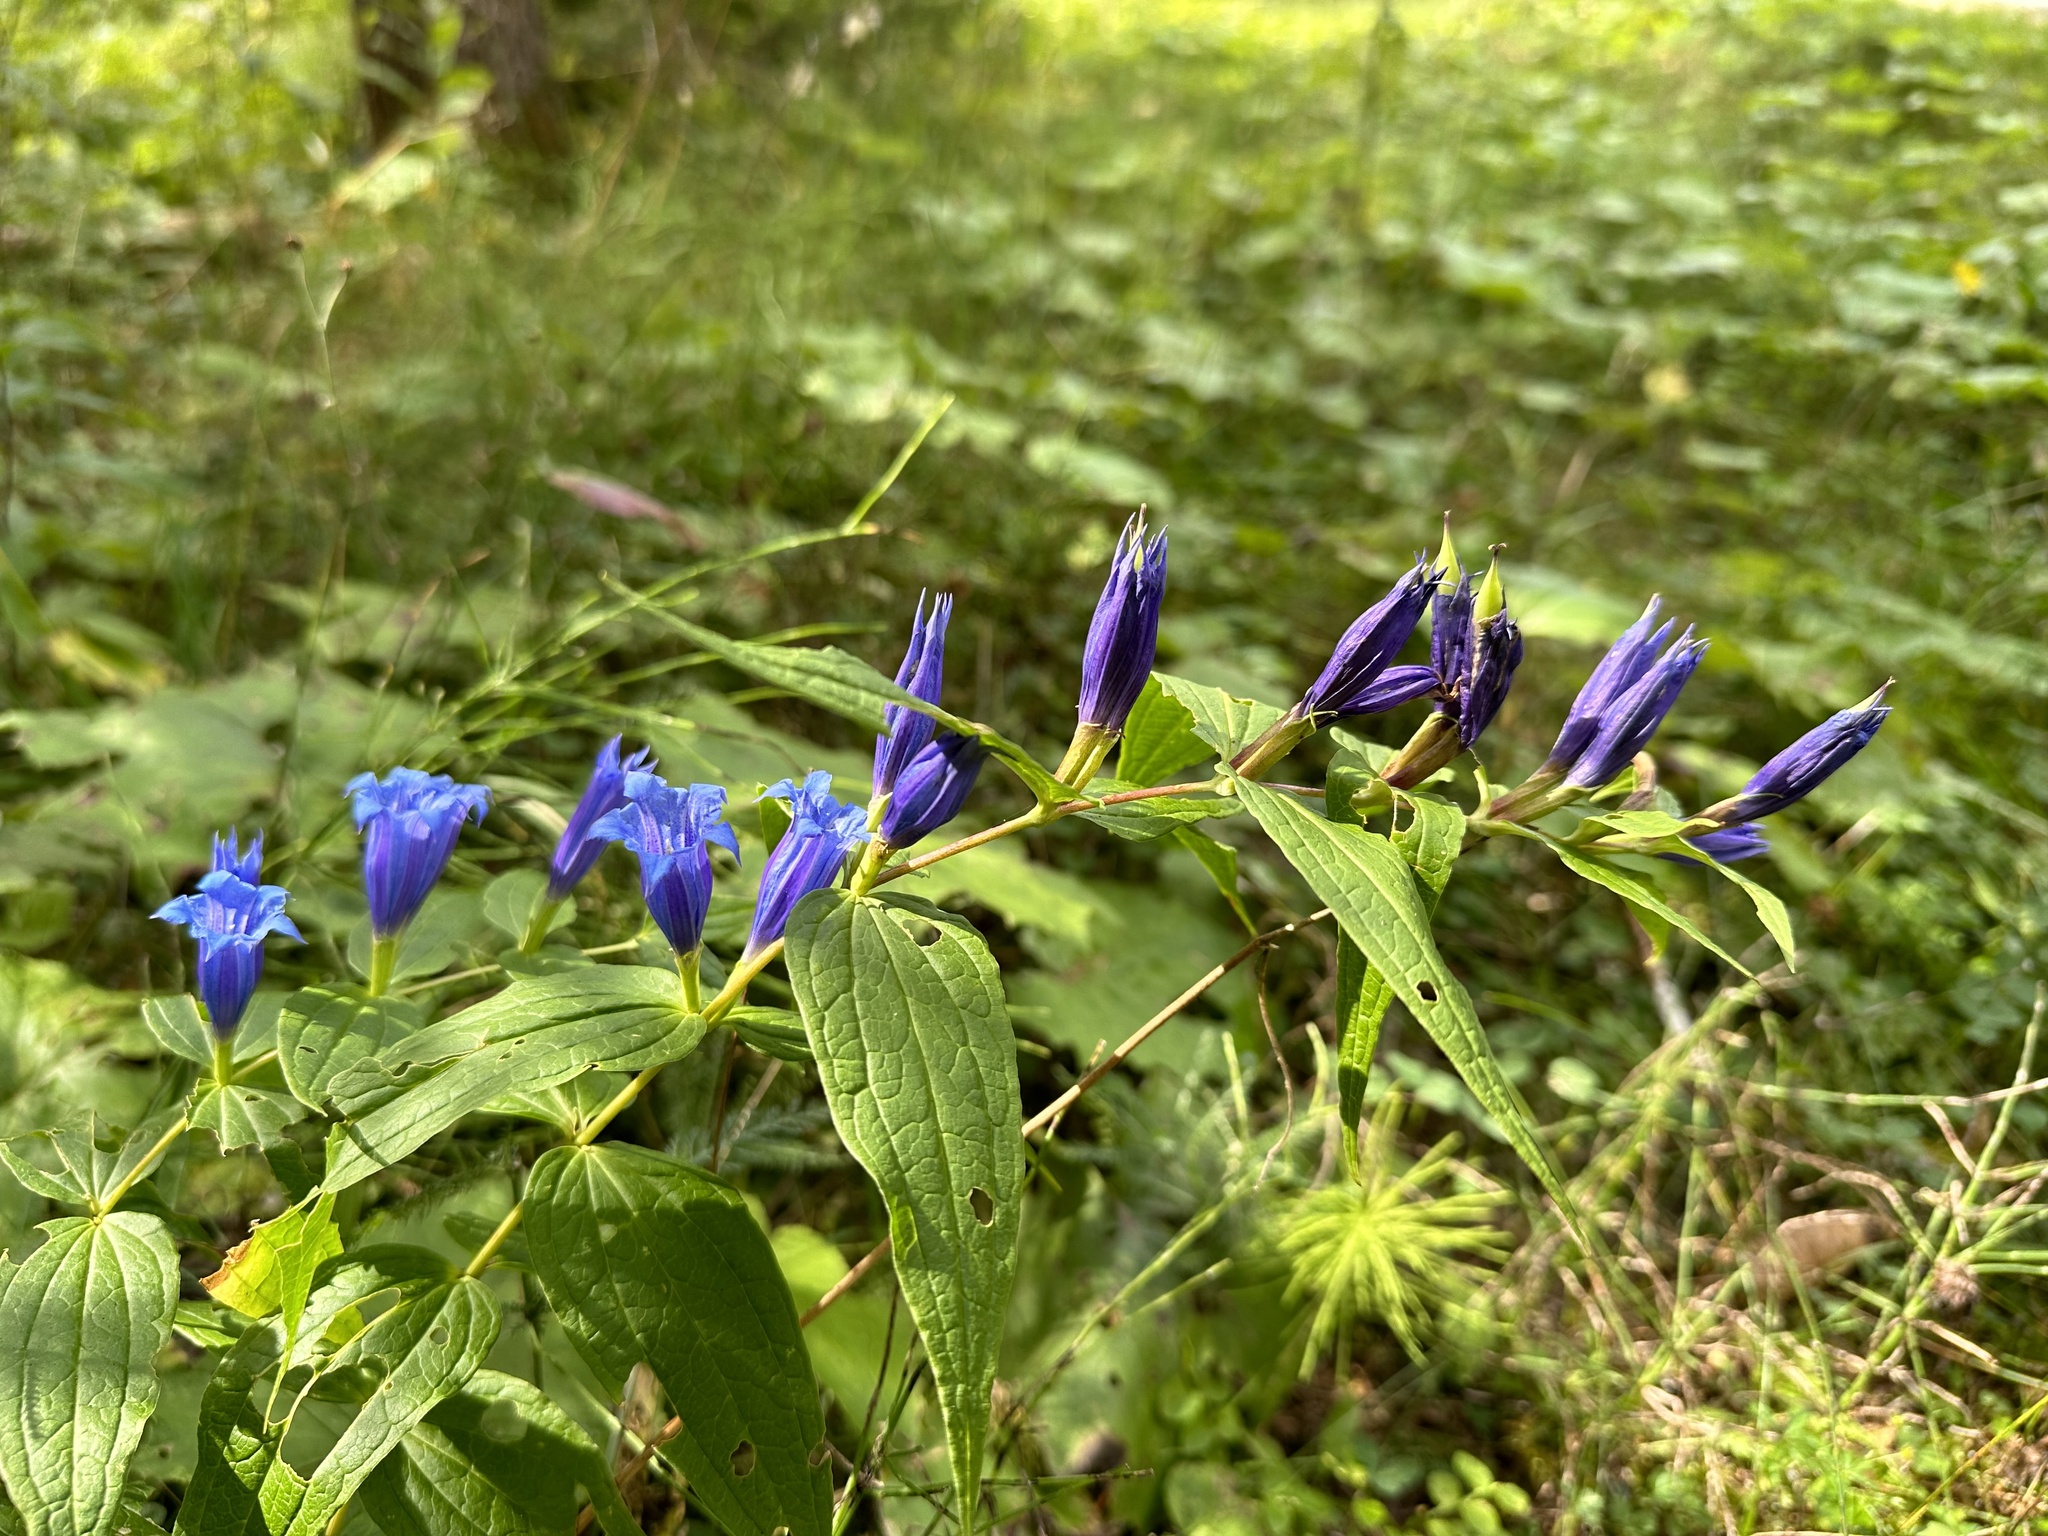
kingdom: Plantae
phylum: Tracheophyta
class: Magnoliopsida
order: Gentianales
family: Gentianaceae
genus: Gentiana
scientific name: Gentiana asclepiadea
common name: Willow gentian
